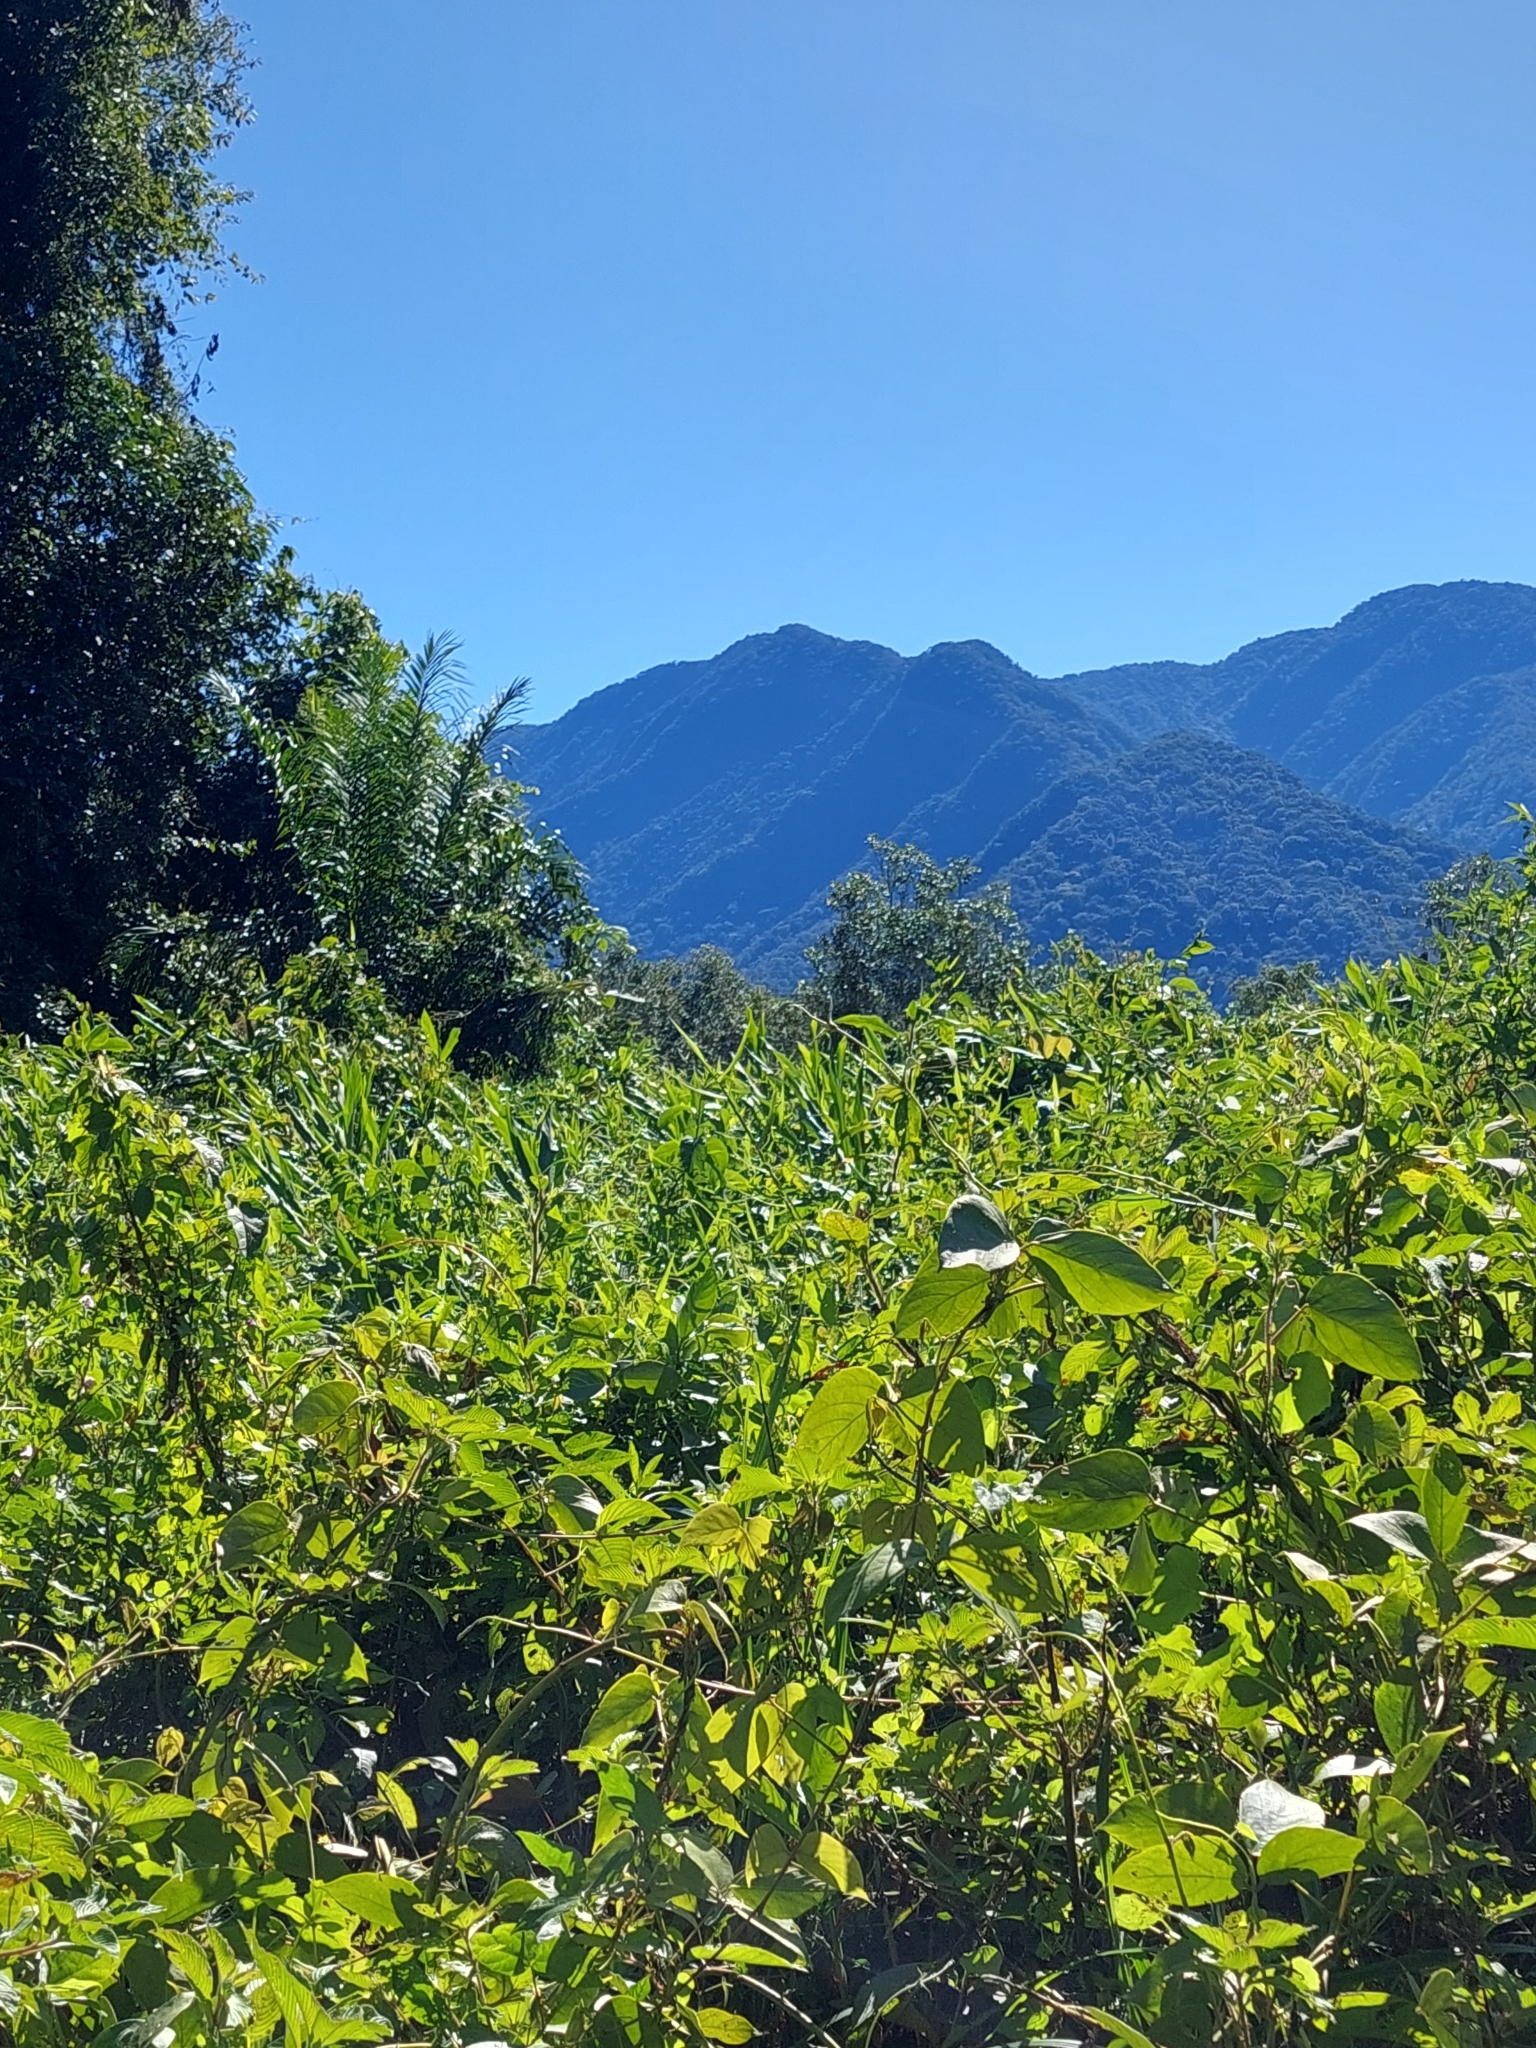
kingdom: Plantae
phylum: Tracheophyta
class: Liliopsida
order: Zingiberales
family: Zingiberaceae
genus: Hedychium
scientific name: Hedychium coronarium
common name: White garland-lily
